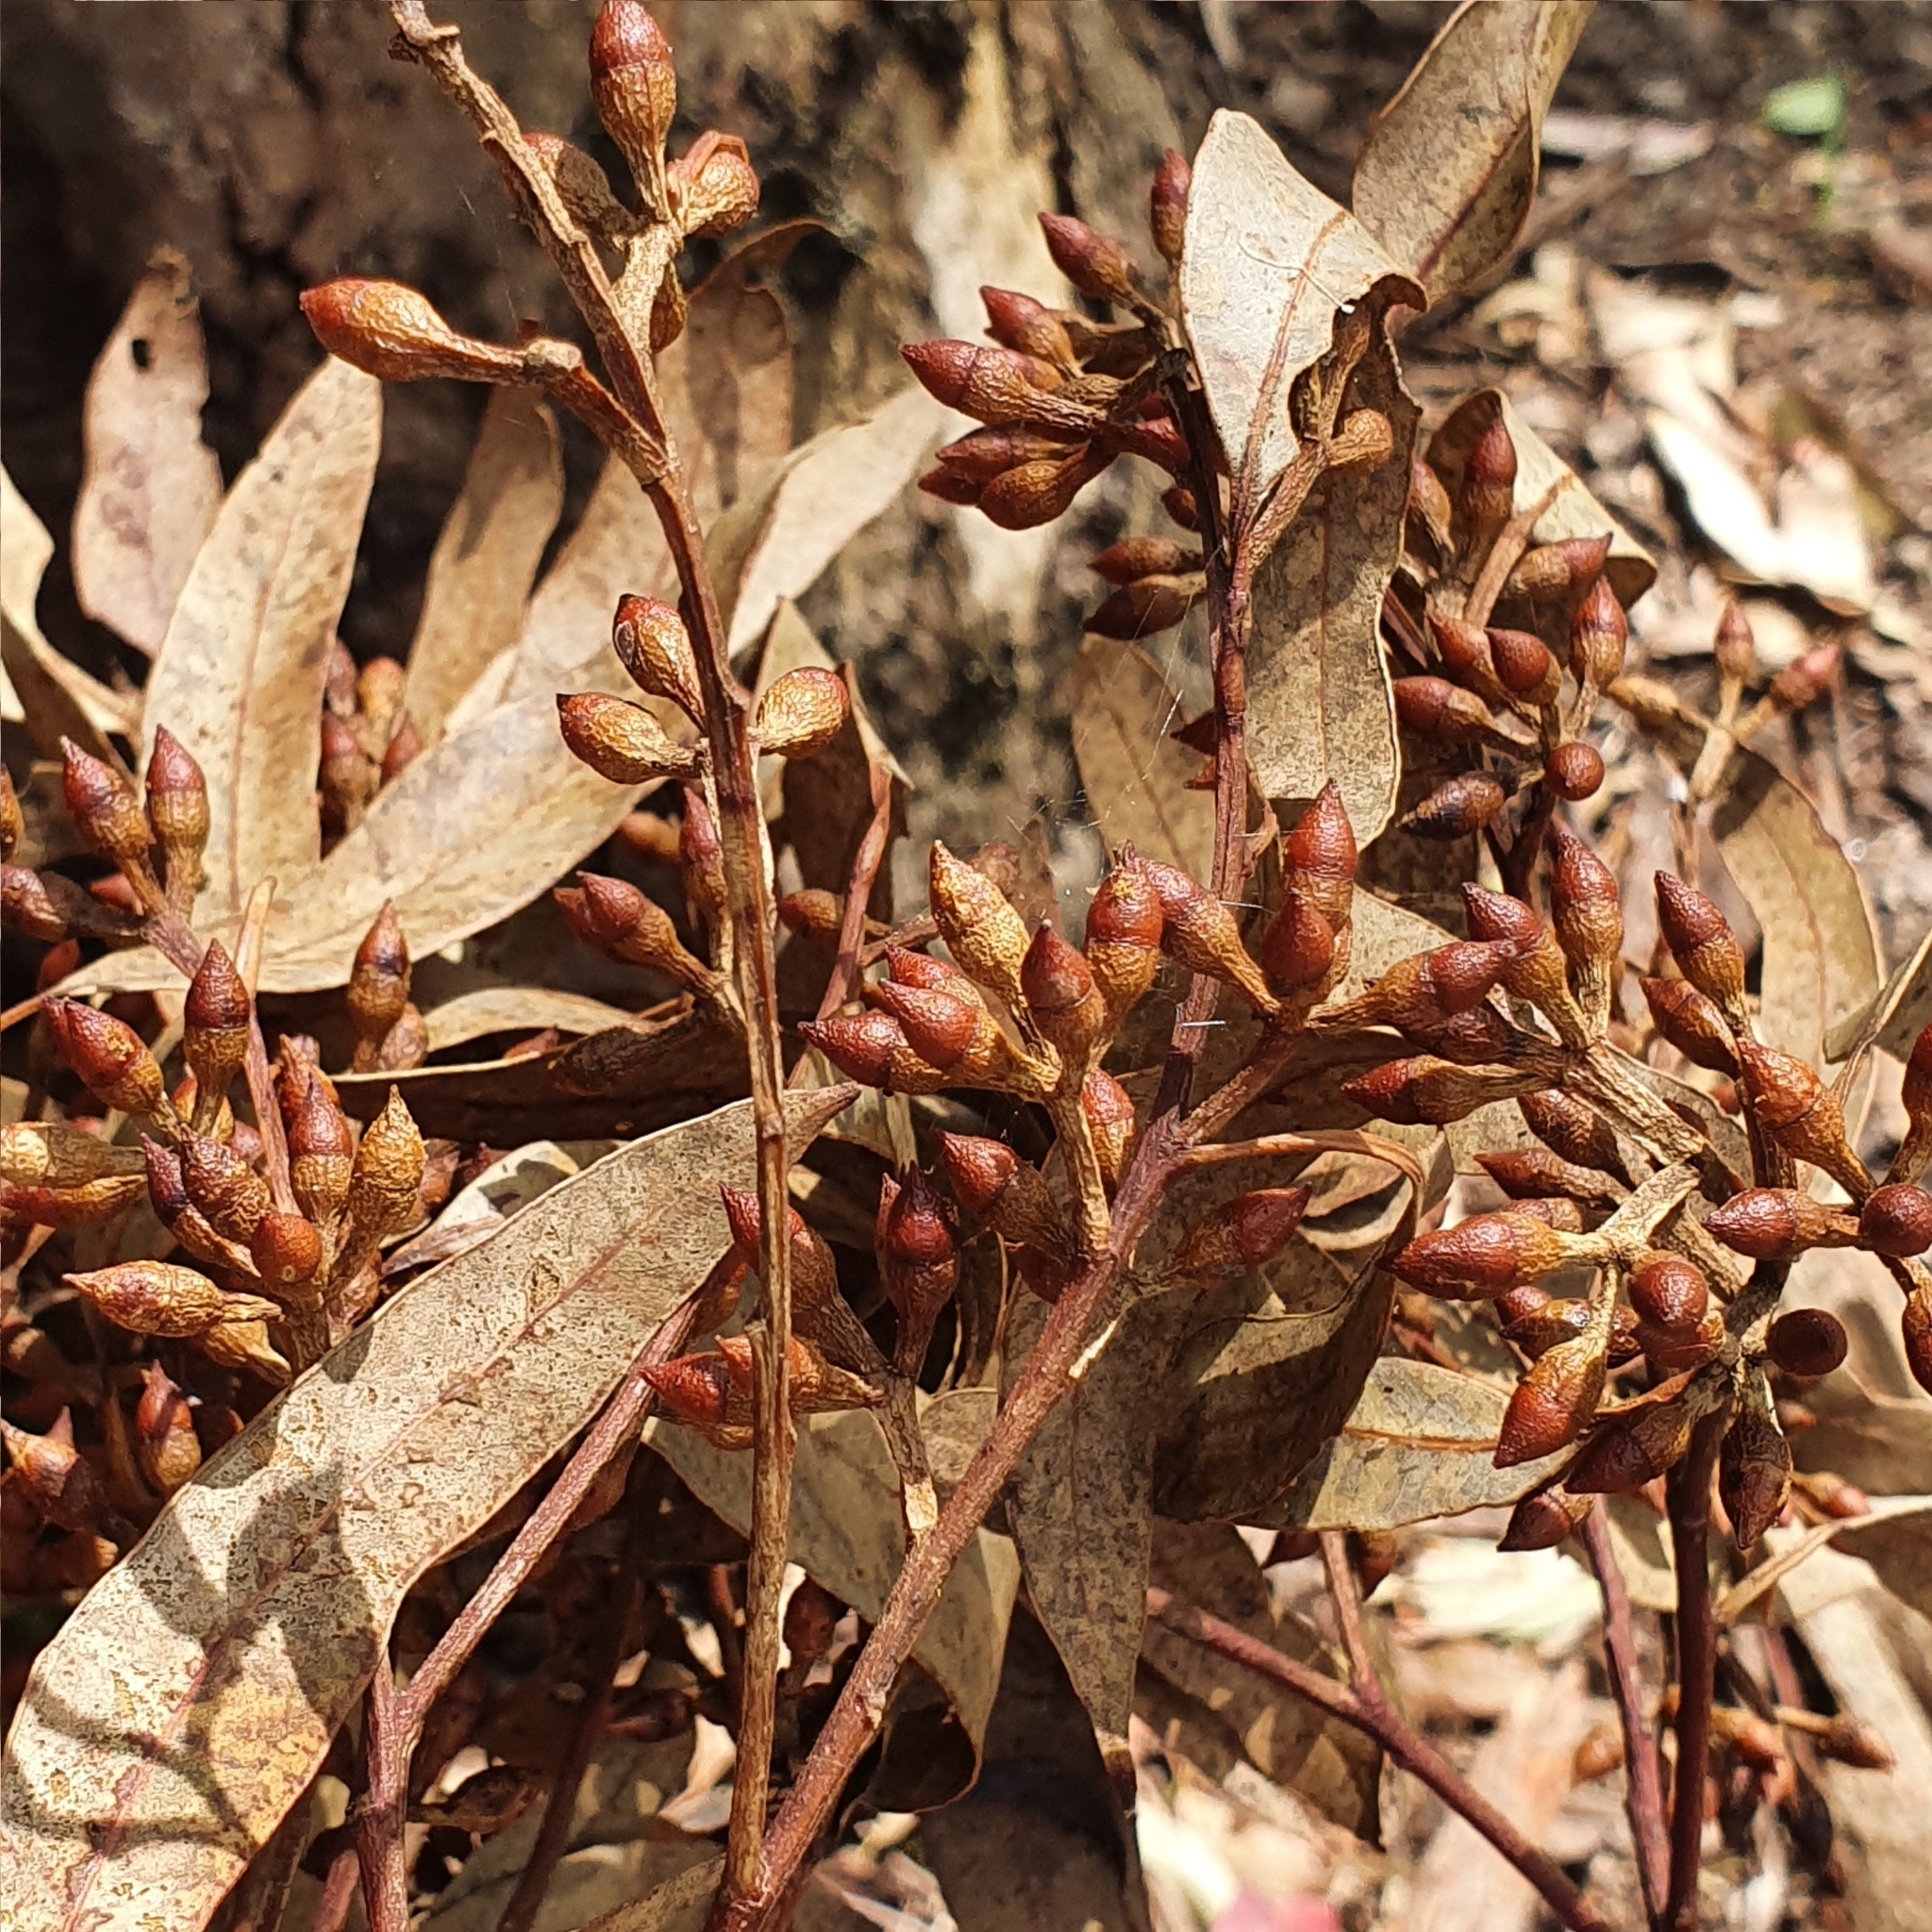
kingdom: Plantae
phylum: Tracheophyta
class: Magnoliopsida
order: Myrtales
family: Myrtaceae
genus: Eucalyptus
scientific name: Eucalyptus punctata
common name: Gray gum
